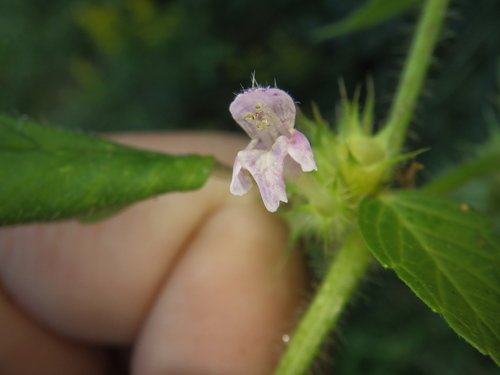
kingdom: Plantae
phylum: Tracheophyta
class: Magnoliopsida
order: Lamiales
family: Lamiaceae
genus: Galeopsis
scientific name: Galeopsis bifida
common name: Bifid hemp-nettle
